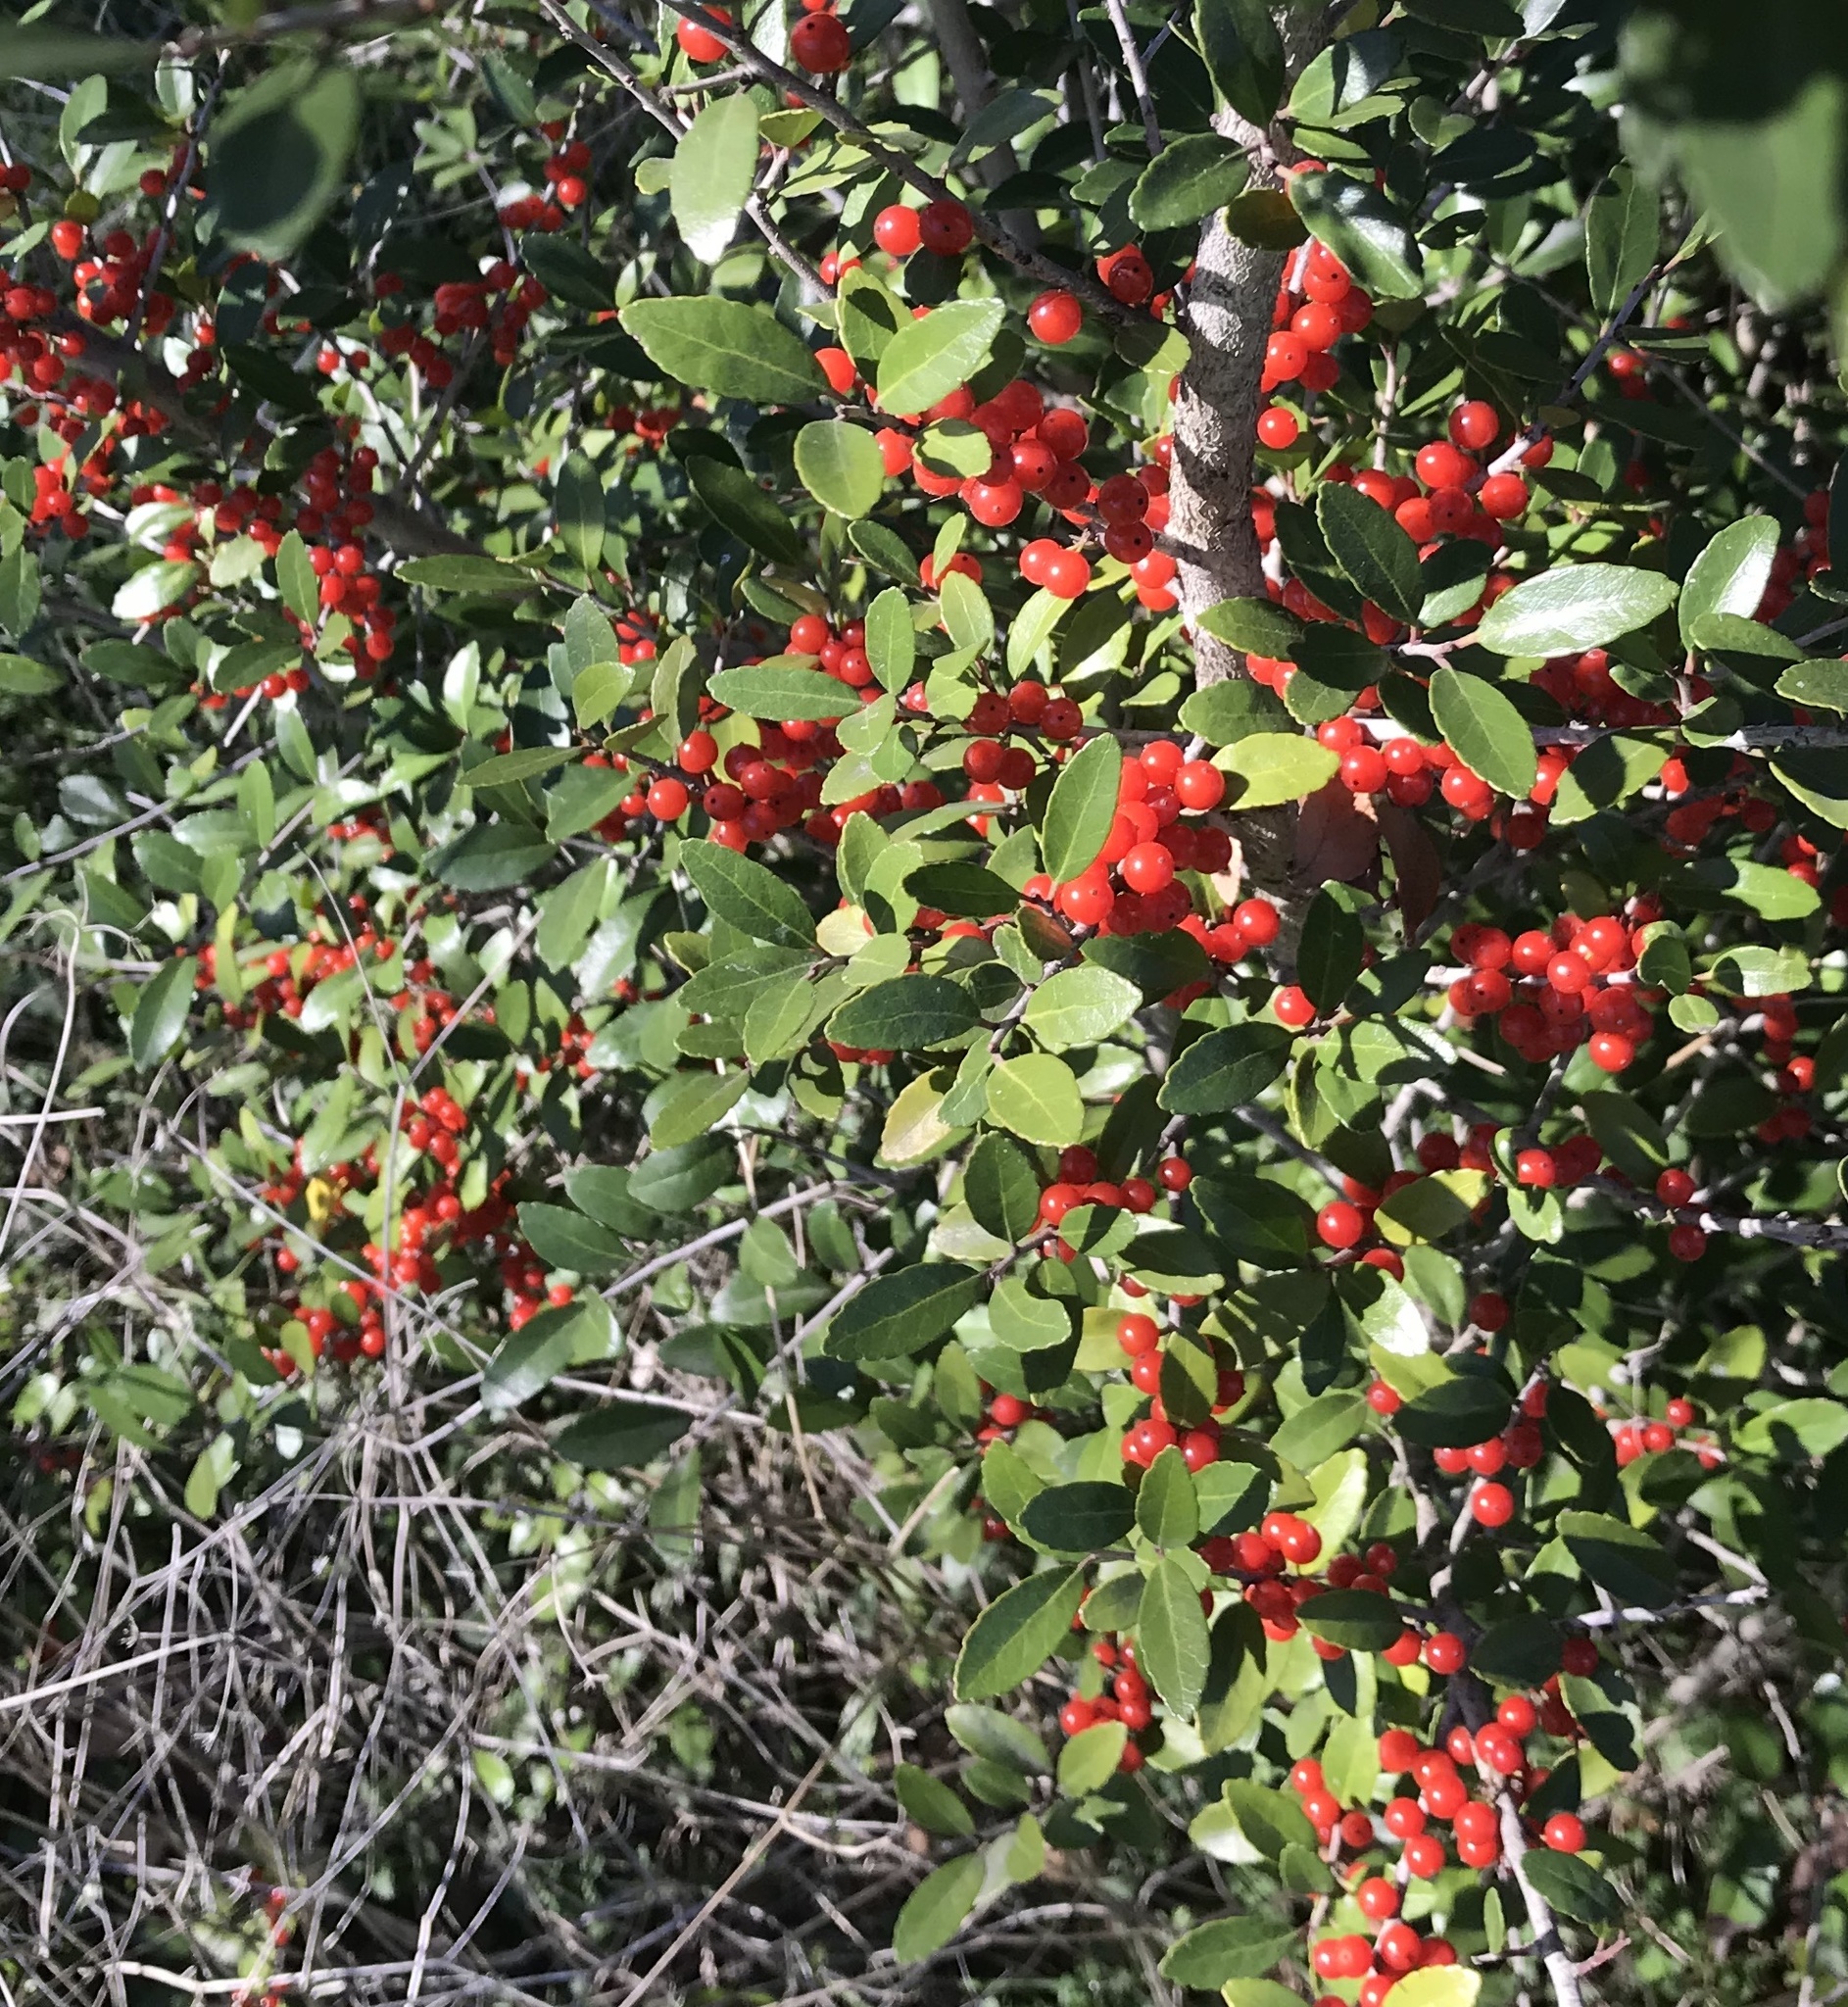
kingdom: Plantae
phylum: Tracheophyta
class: Magnoliopsida
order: Aquifoliales
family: Aquifoliaceae
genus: Ilex
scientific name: Ilex vomitoria
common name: Yaupon holly
